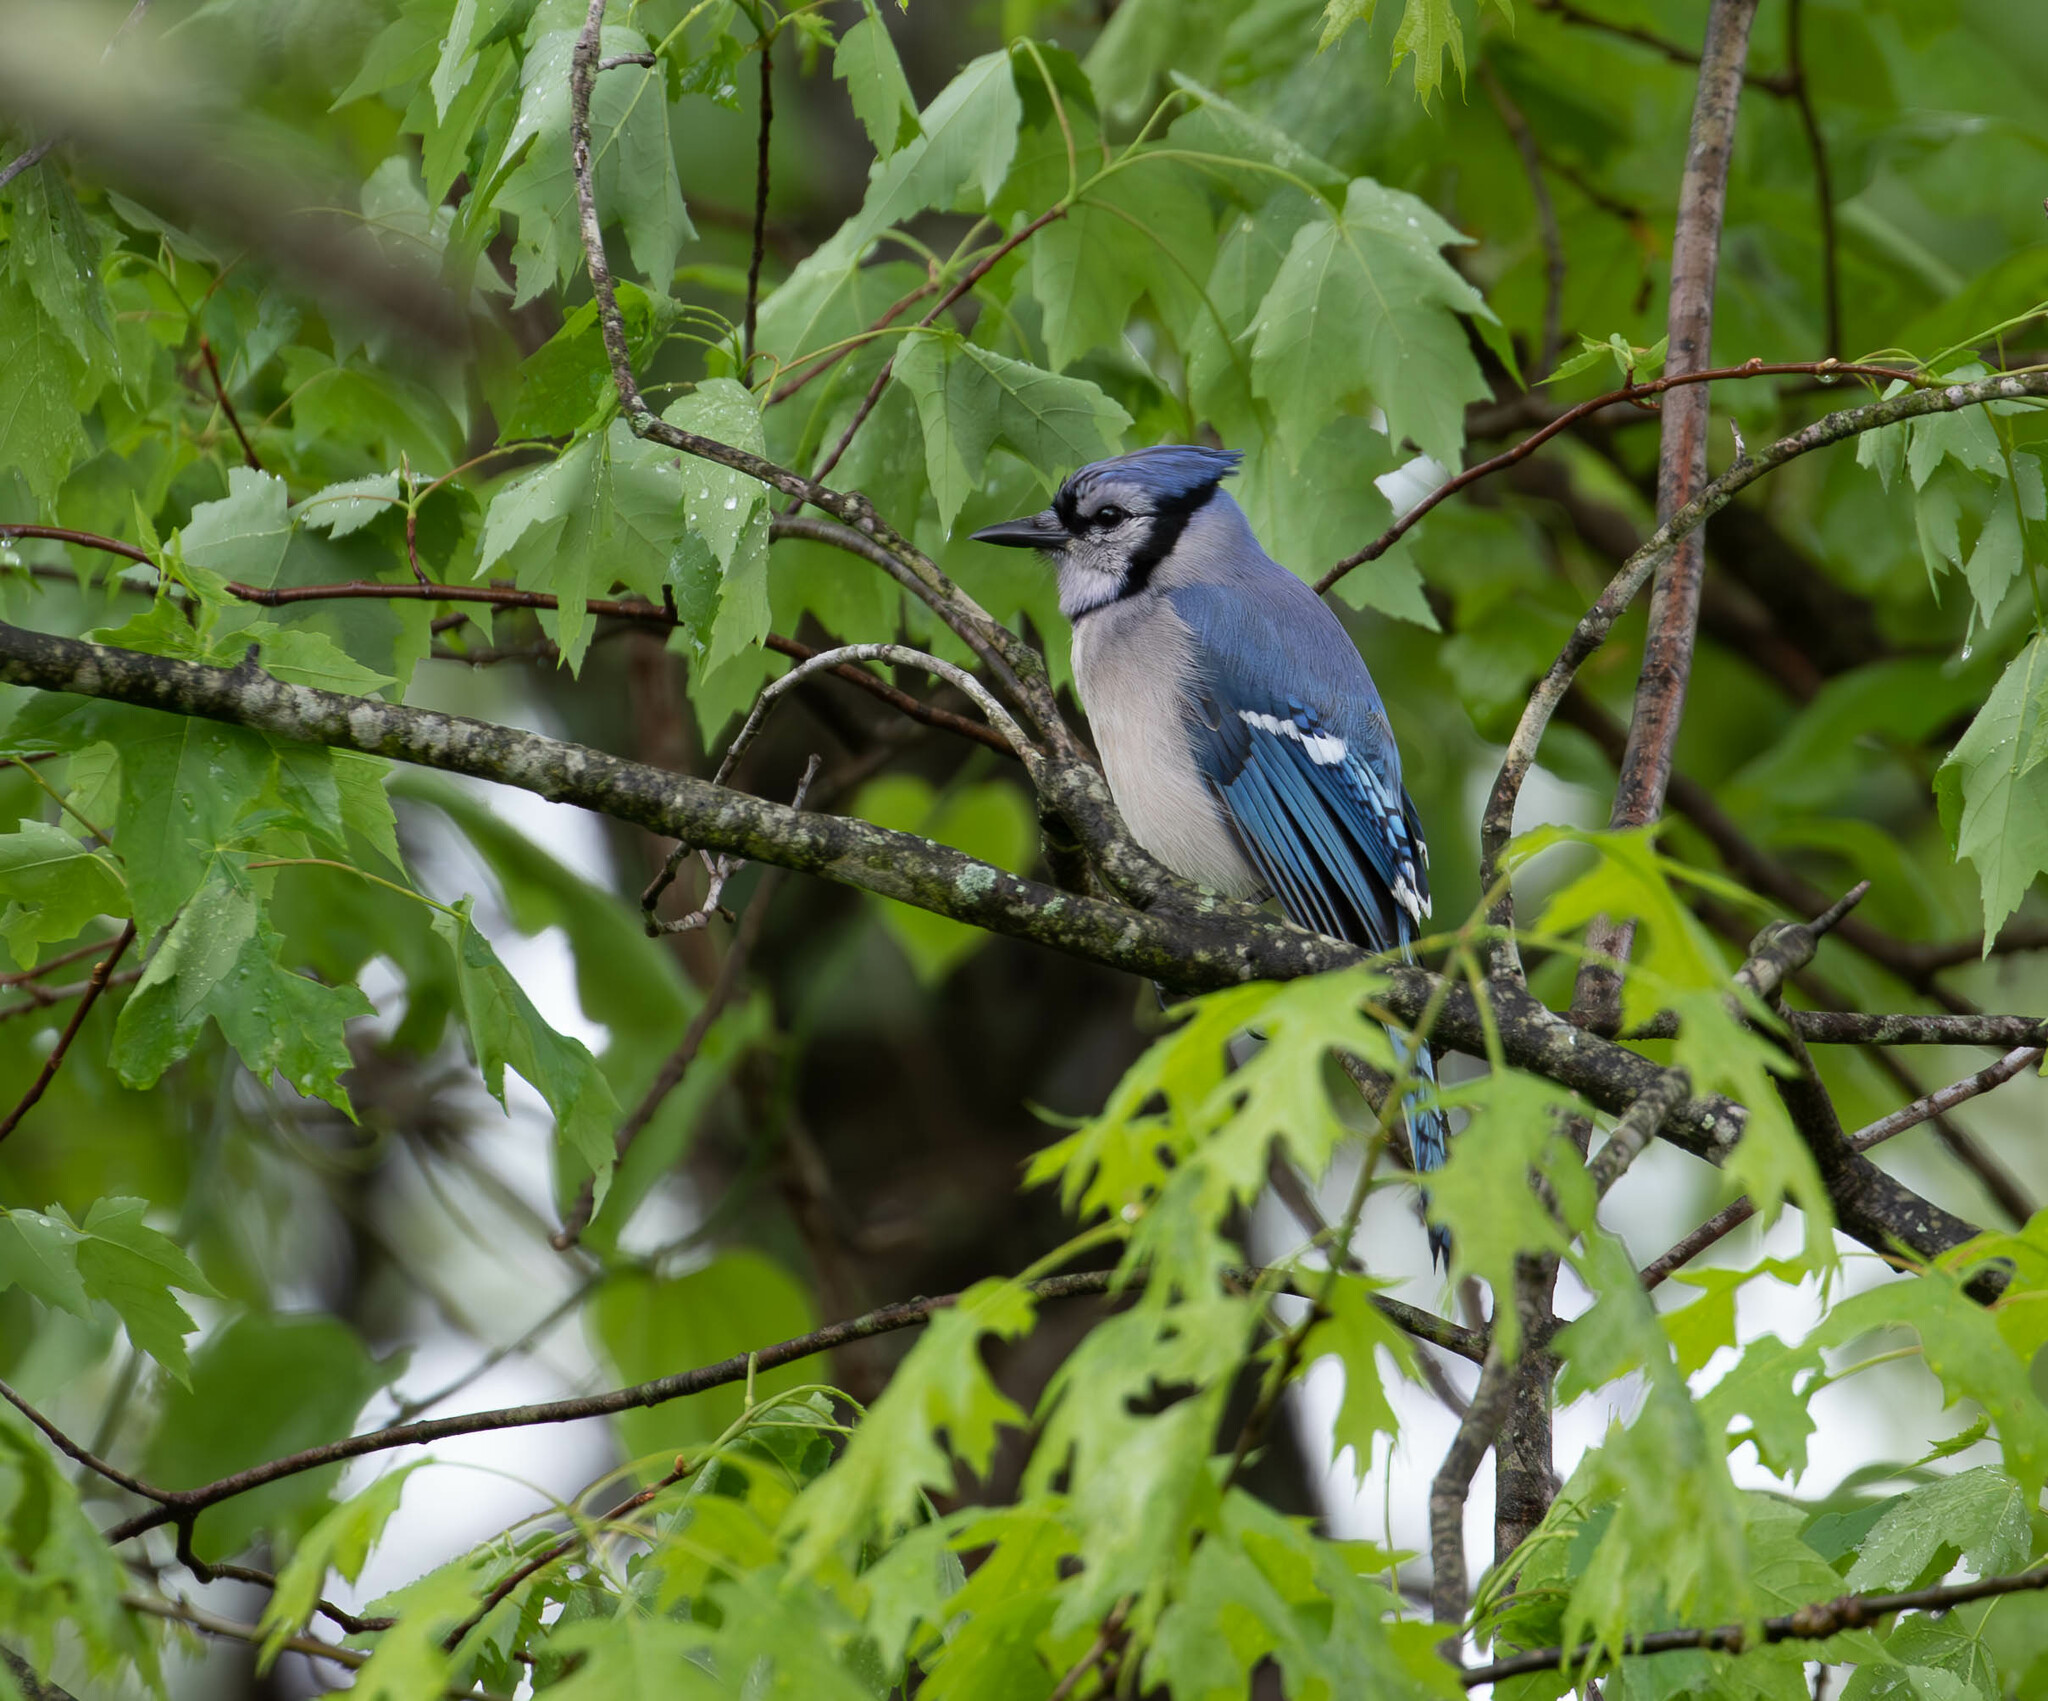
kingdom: Animalia
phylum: Chordata
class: Aves
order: Passeriformes
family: Corvidae
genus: Cyanocitta
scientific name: Cyanocitta cristata
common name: Blue jay
